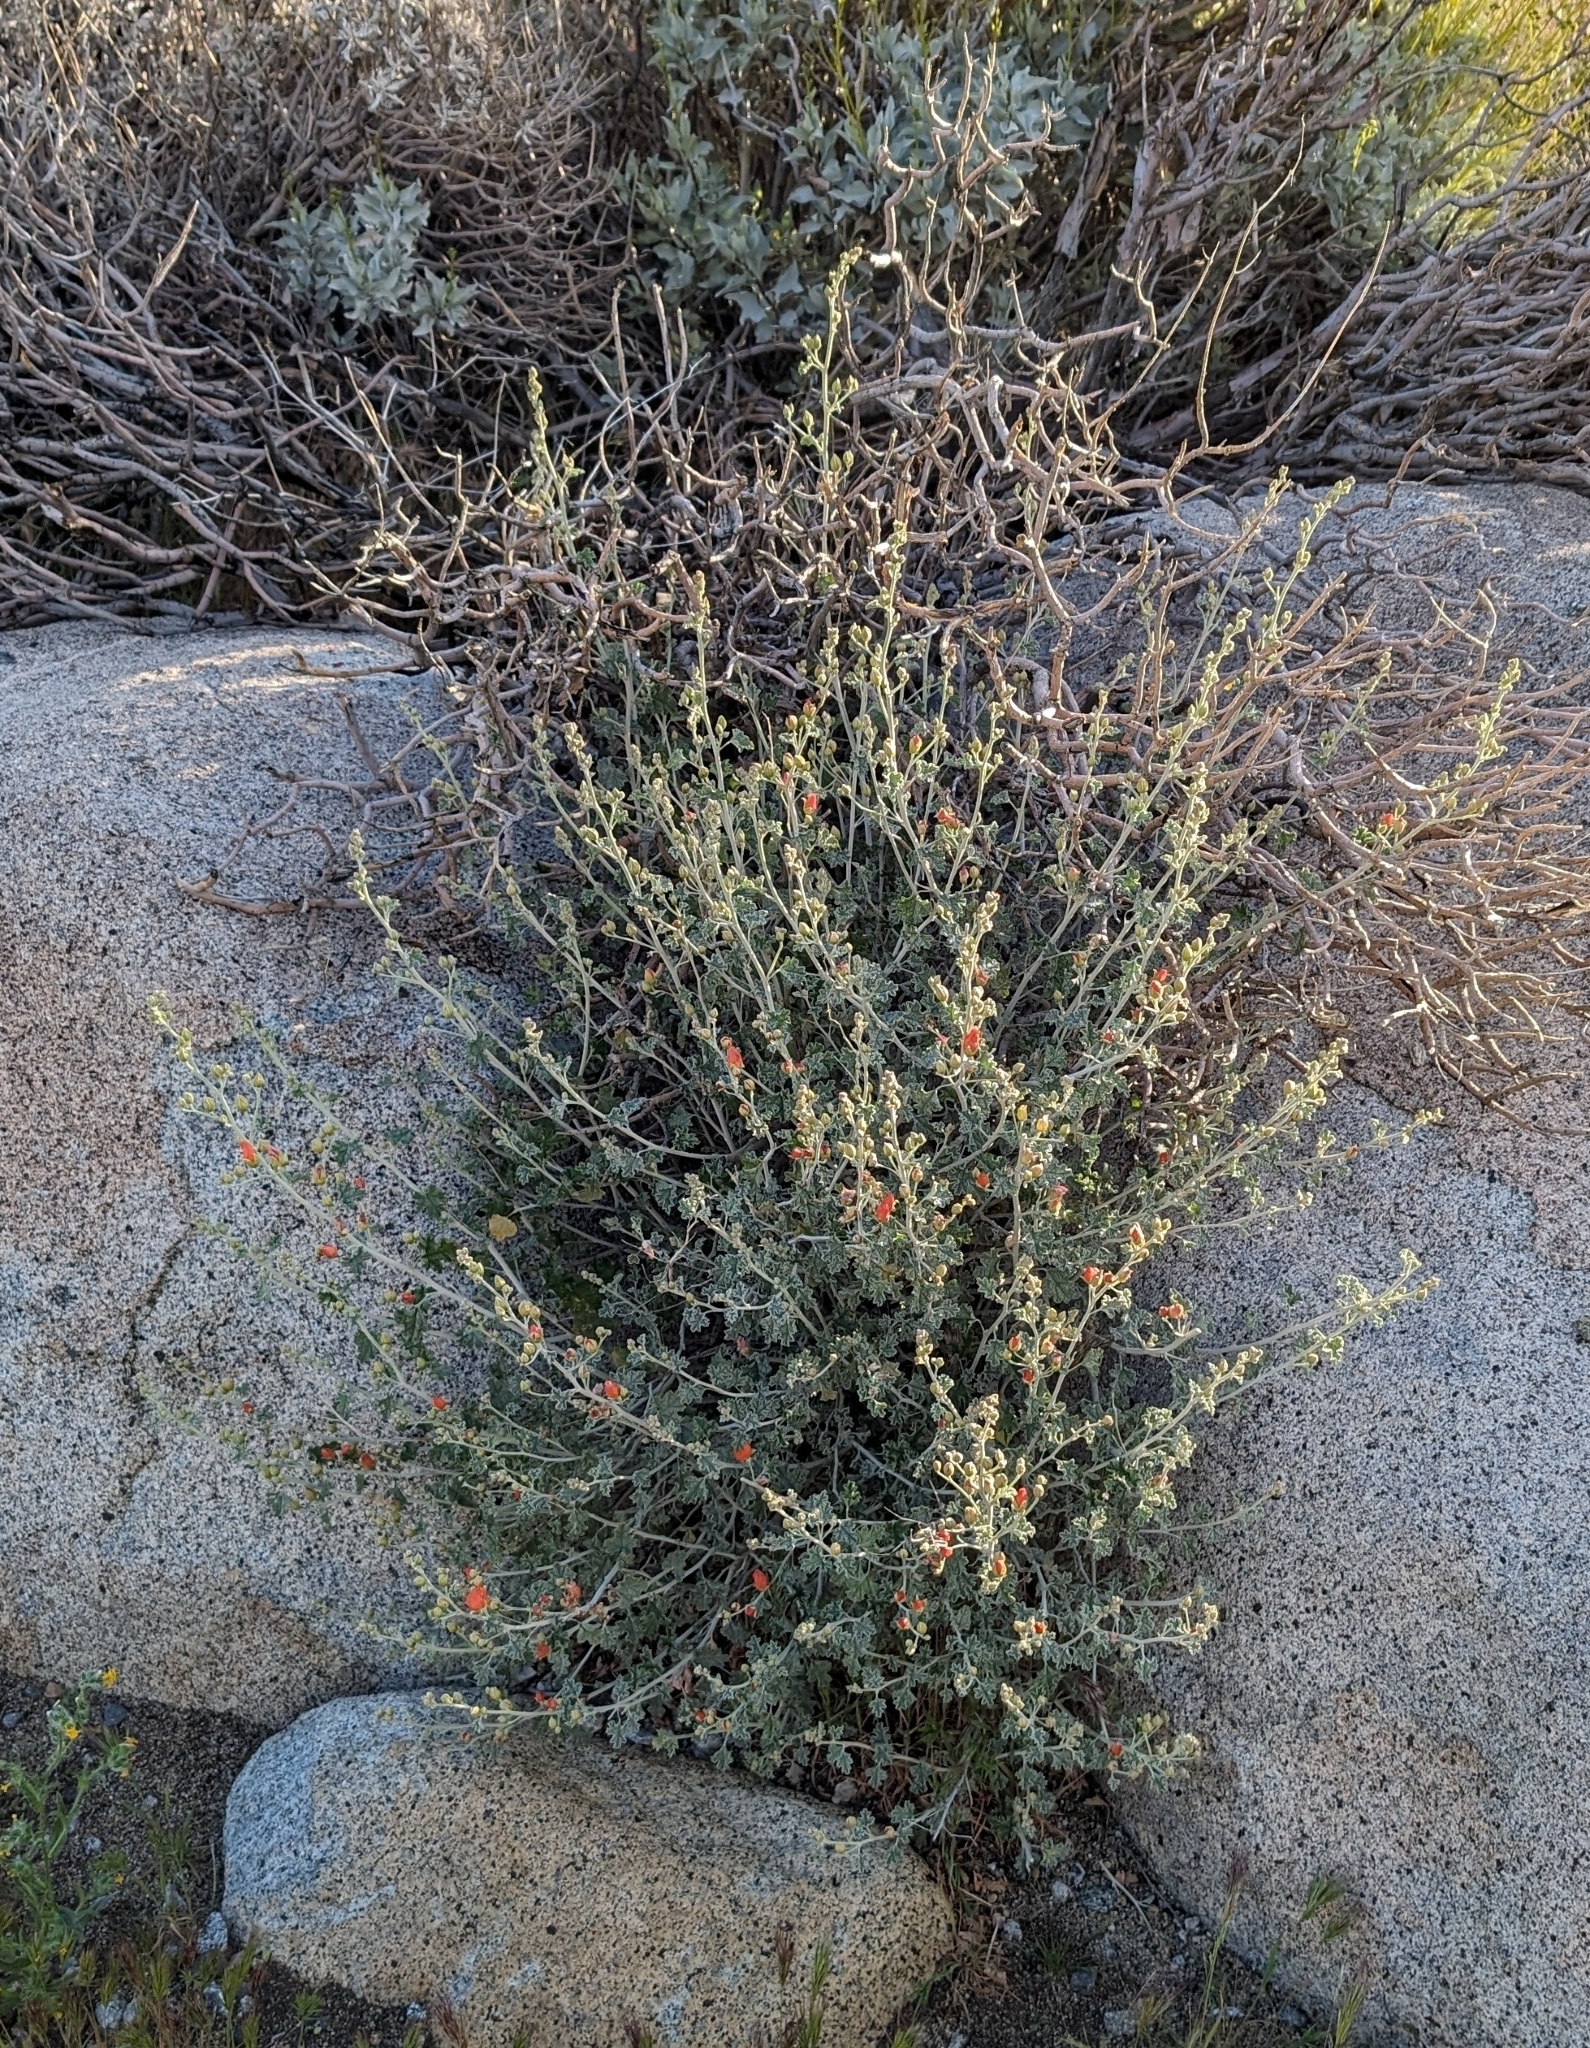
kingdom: Plantae
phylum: Tracheophyta
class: Magnoliopsida
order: Malvales
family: Malvaceae
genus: Sphaeralcea
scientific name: Sphaeralcea ambigua
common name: Apricot globe-mallow
